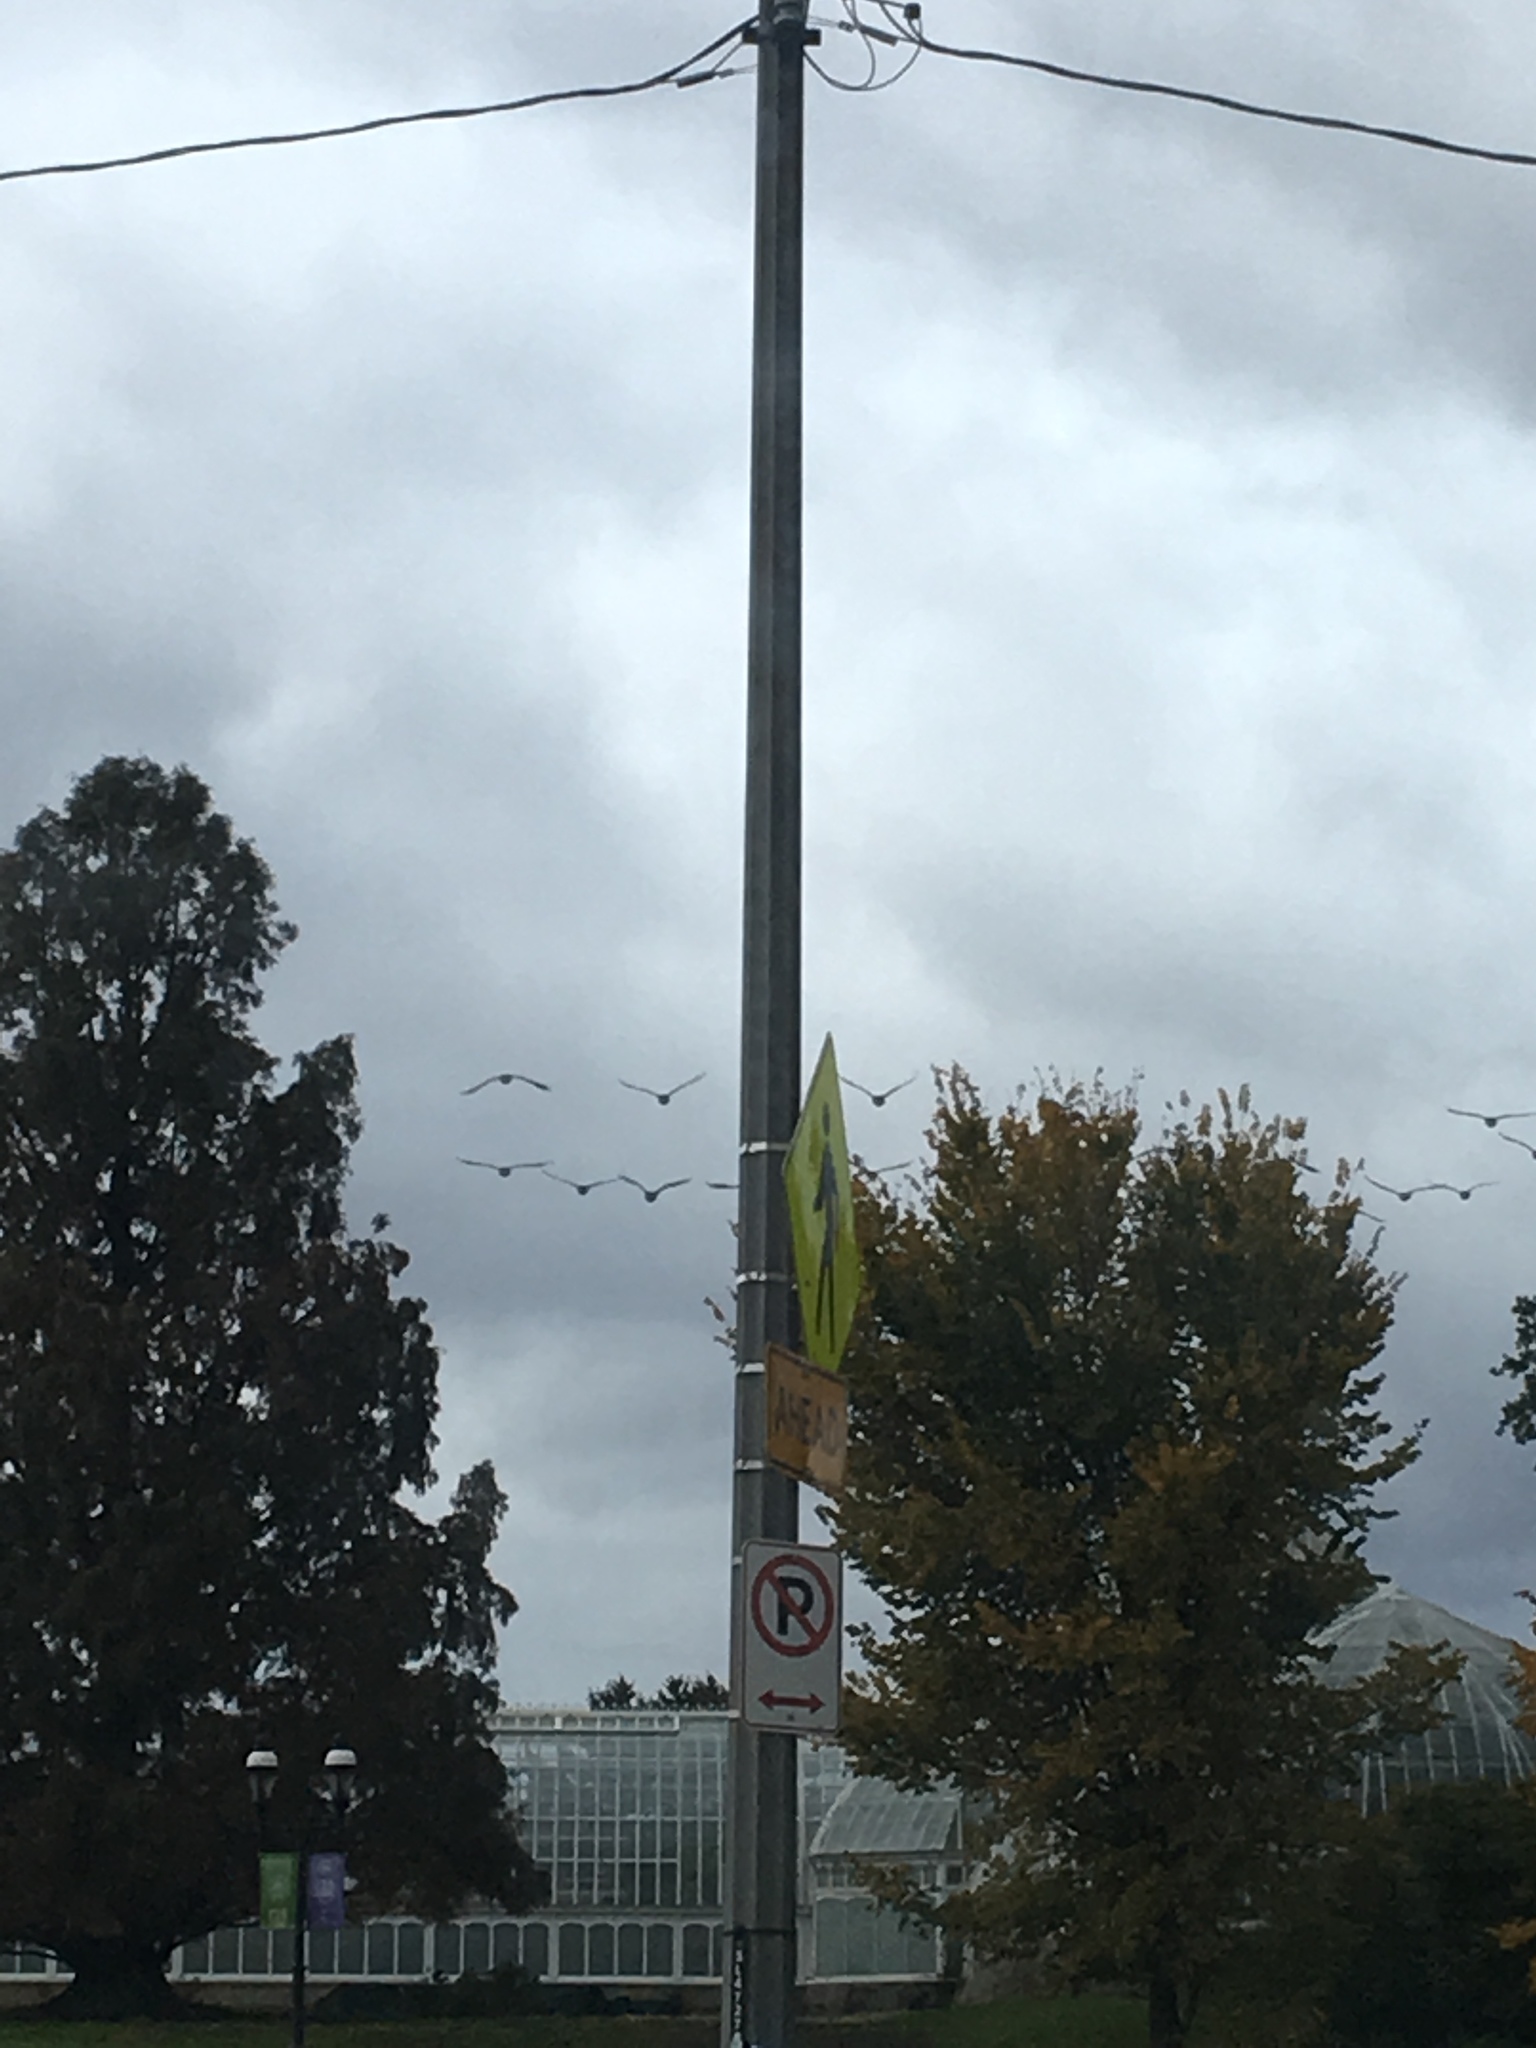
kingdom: Animalia
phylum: Chordata
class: Aves
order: Anseriformes
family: Anatidae
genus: Branta
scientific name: Branta canadensis
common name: Canada goose
